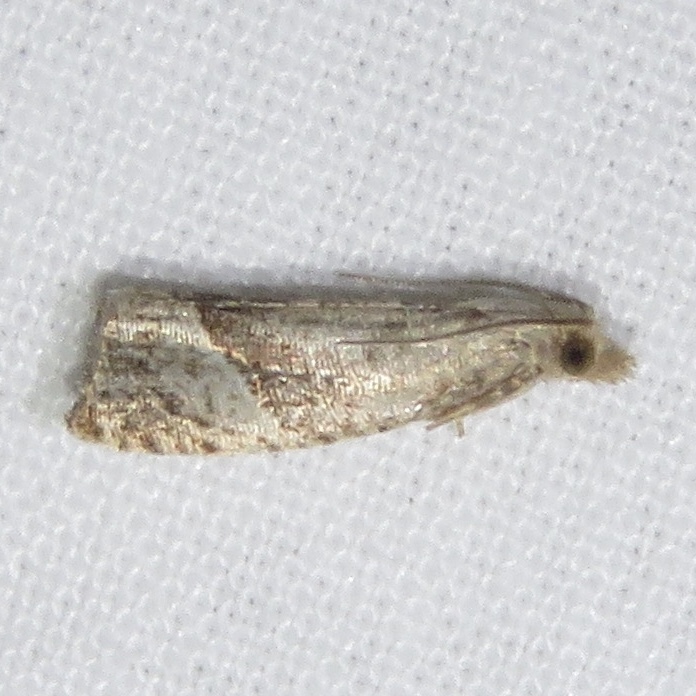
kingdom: Animalia
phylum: Arthropoda
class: Insecta
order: Lepidoptera
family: Tortricidae
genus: Pelochrista
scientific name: Pelochrista derelicta
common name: Derelict pelochrista moth
